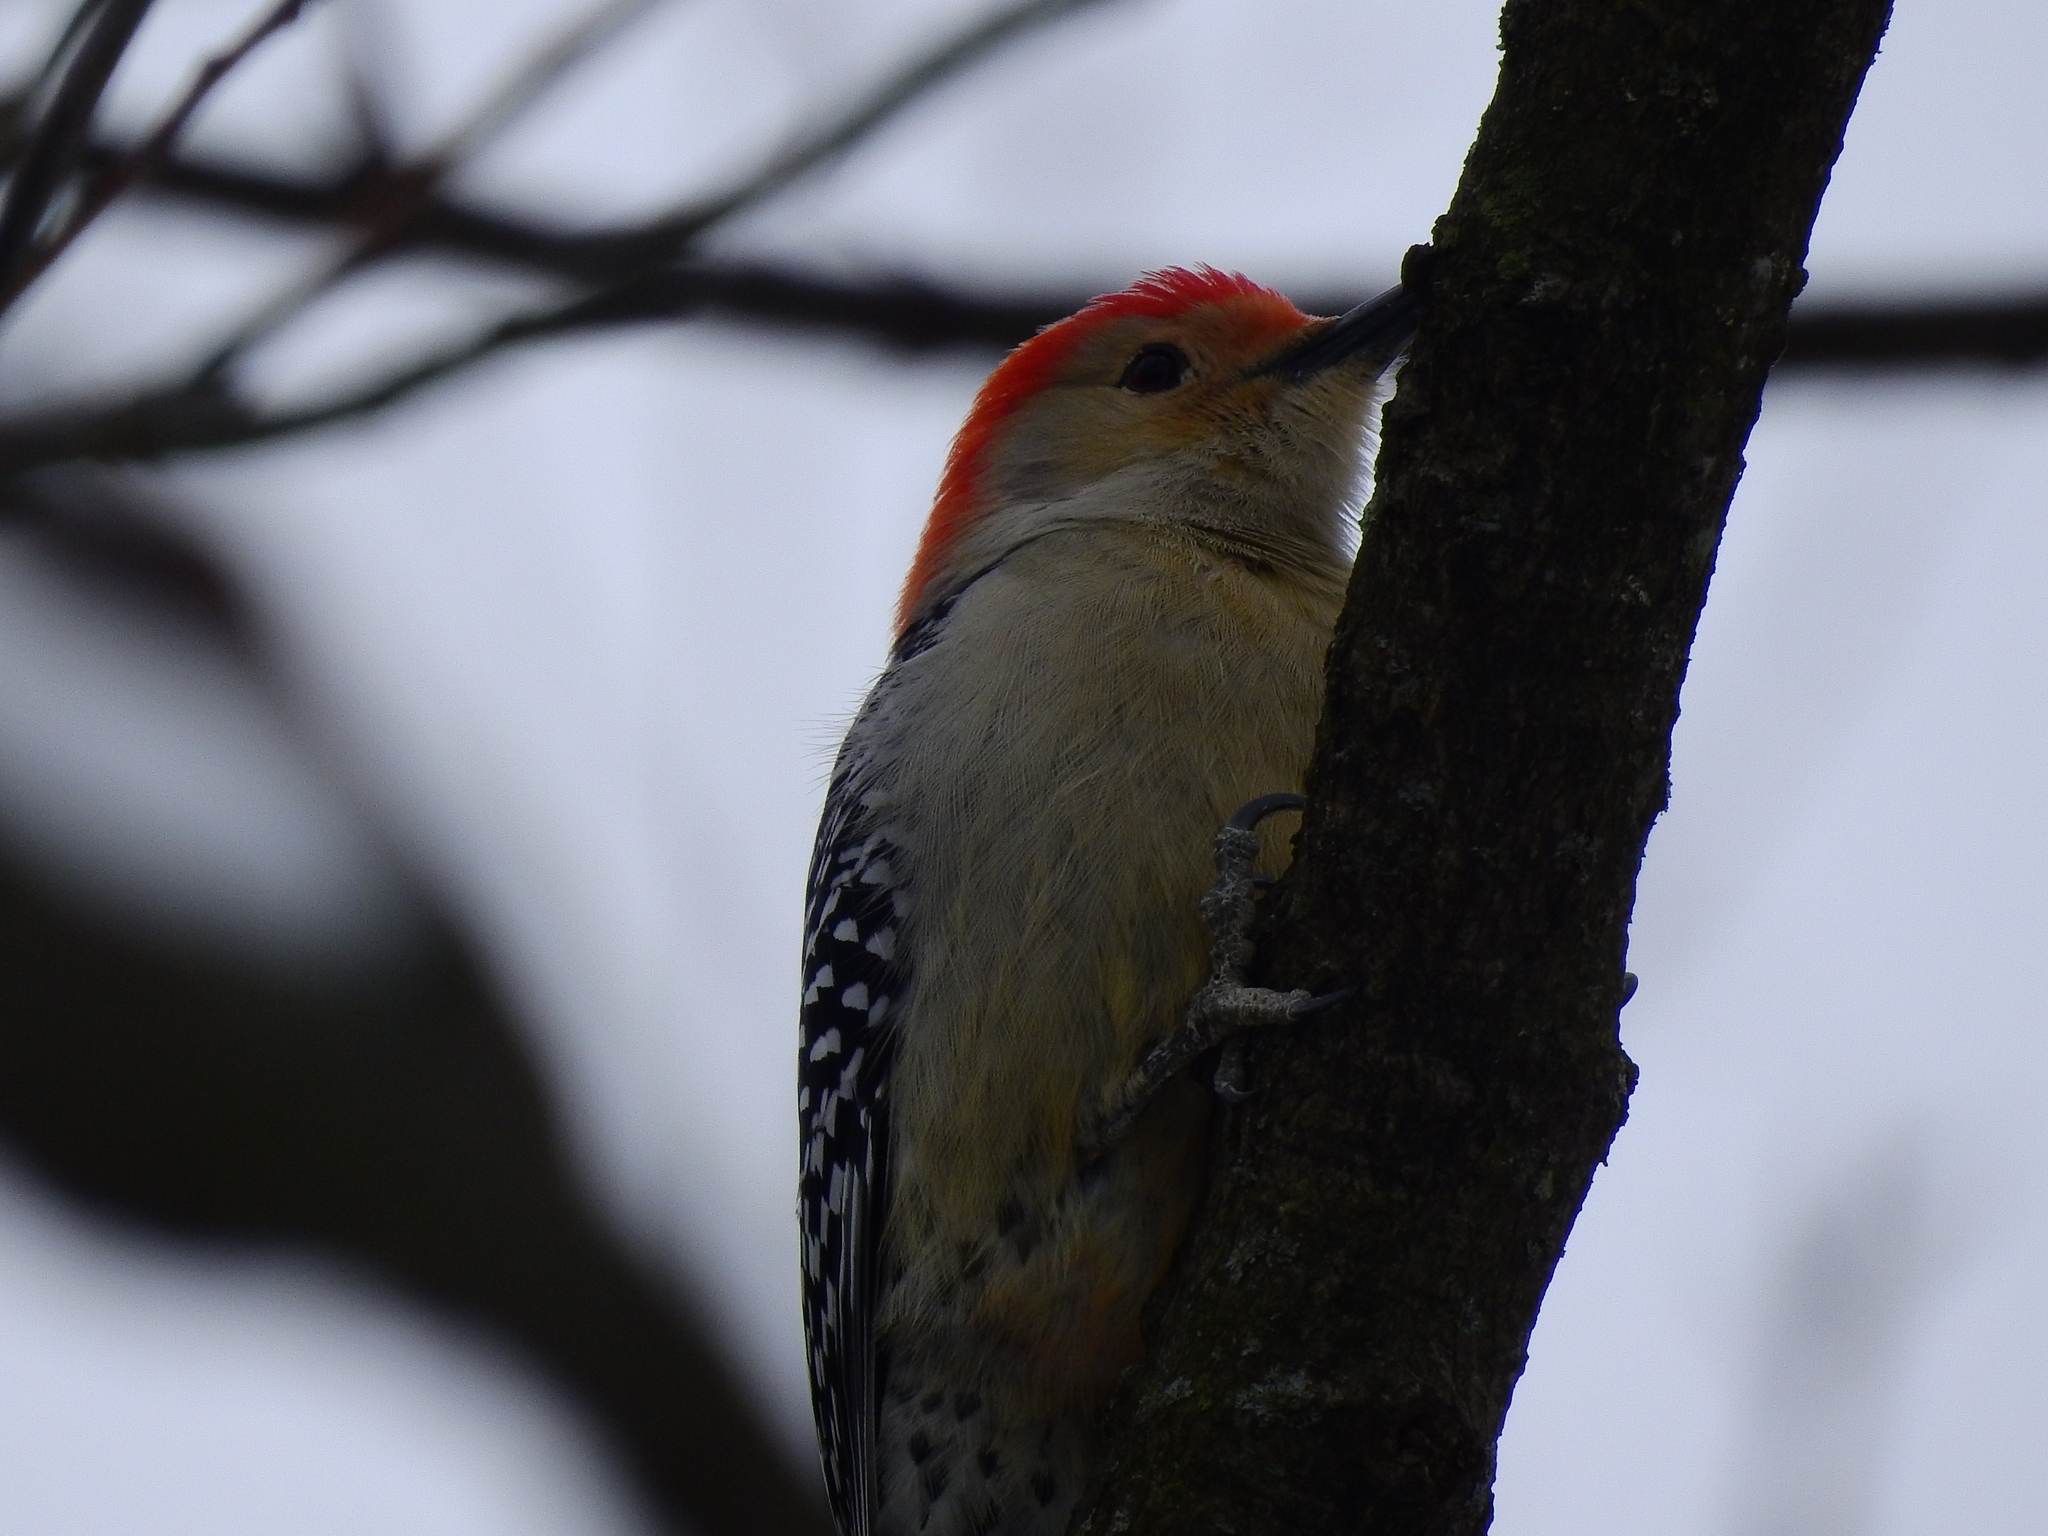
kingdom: Animalia
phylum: Chordata
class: Aves
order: Piciformes
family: Picidae
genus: Melanerpes
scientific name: Melanerpes carolinus
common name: Red-bellied woodpecker
